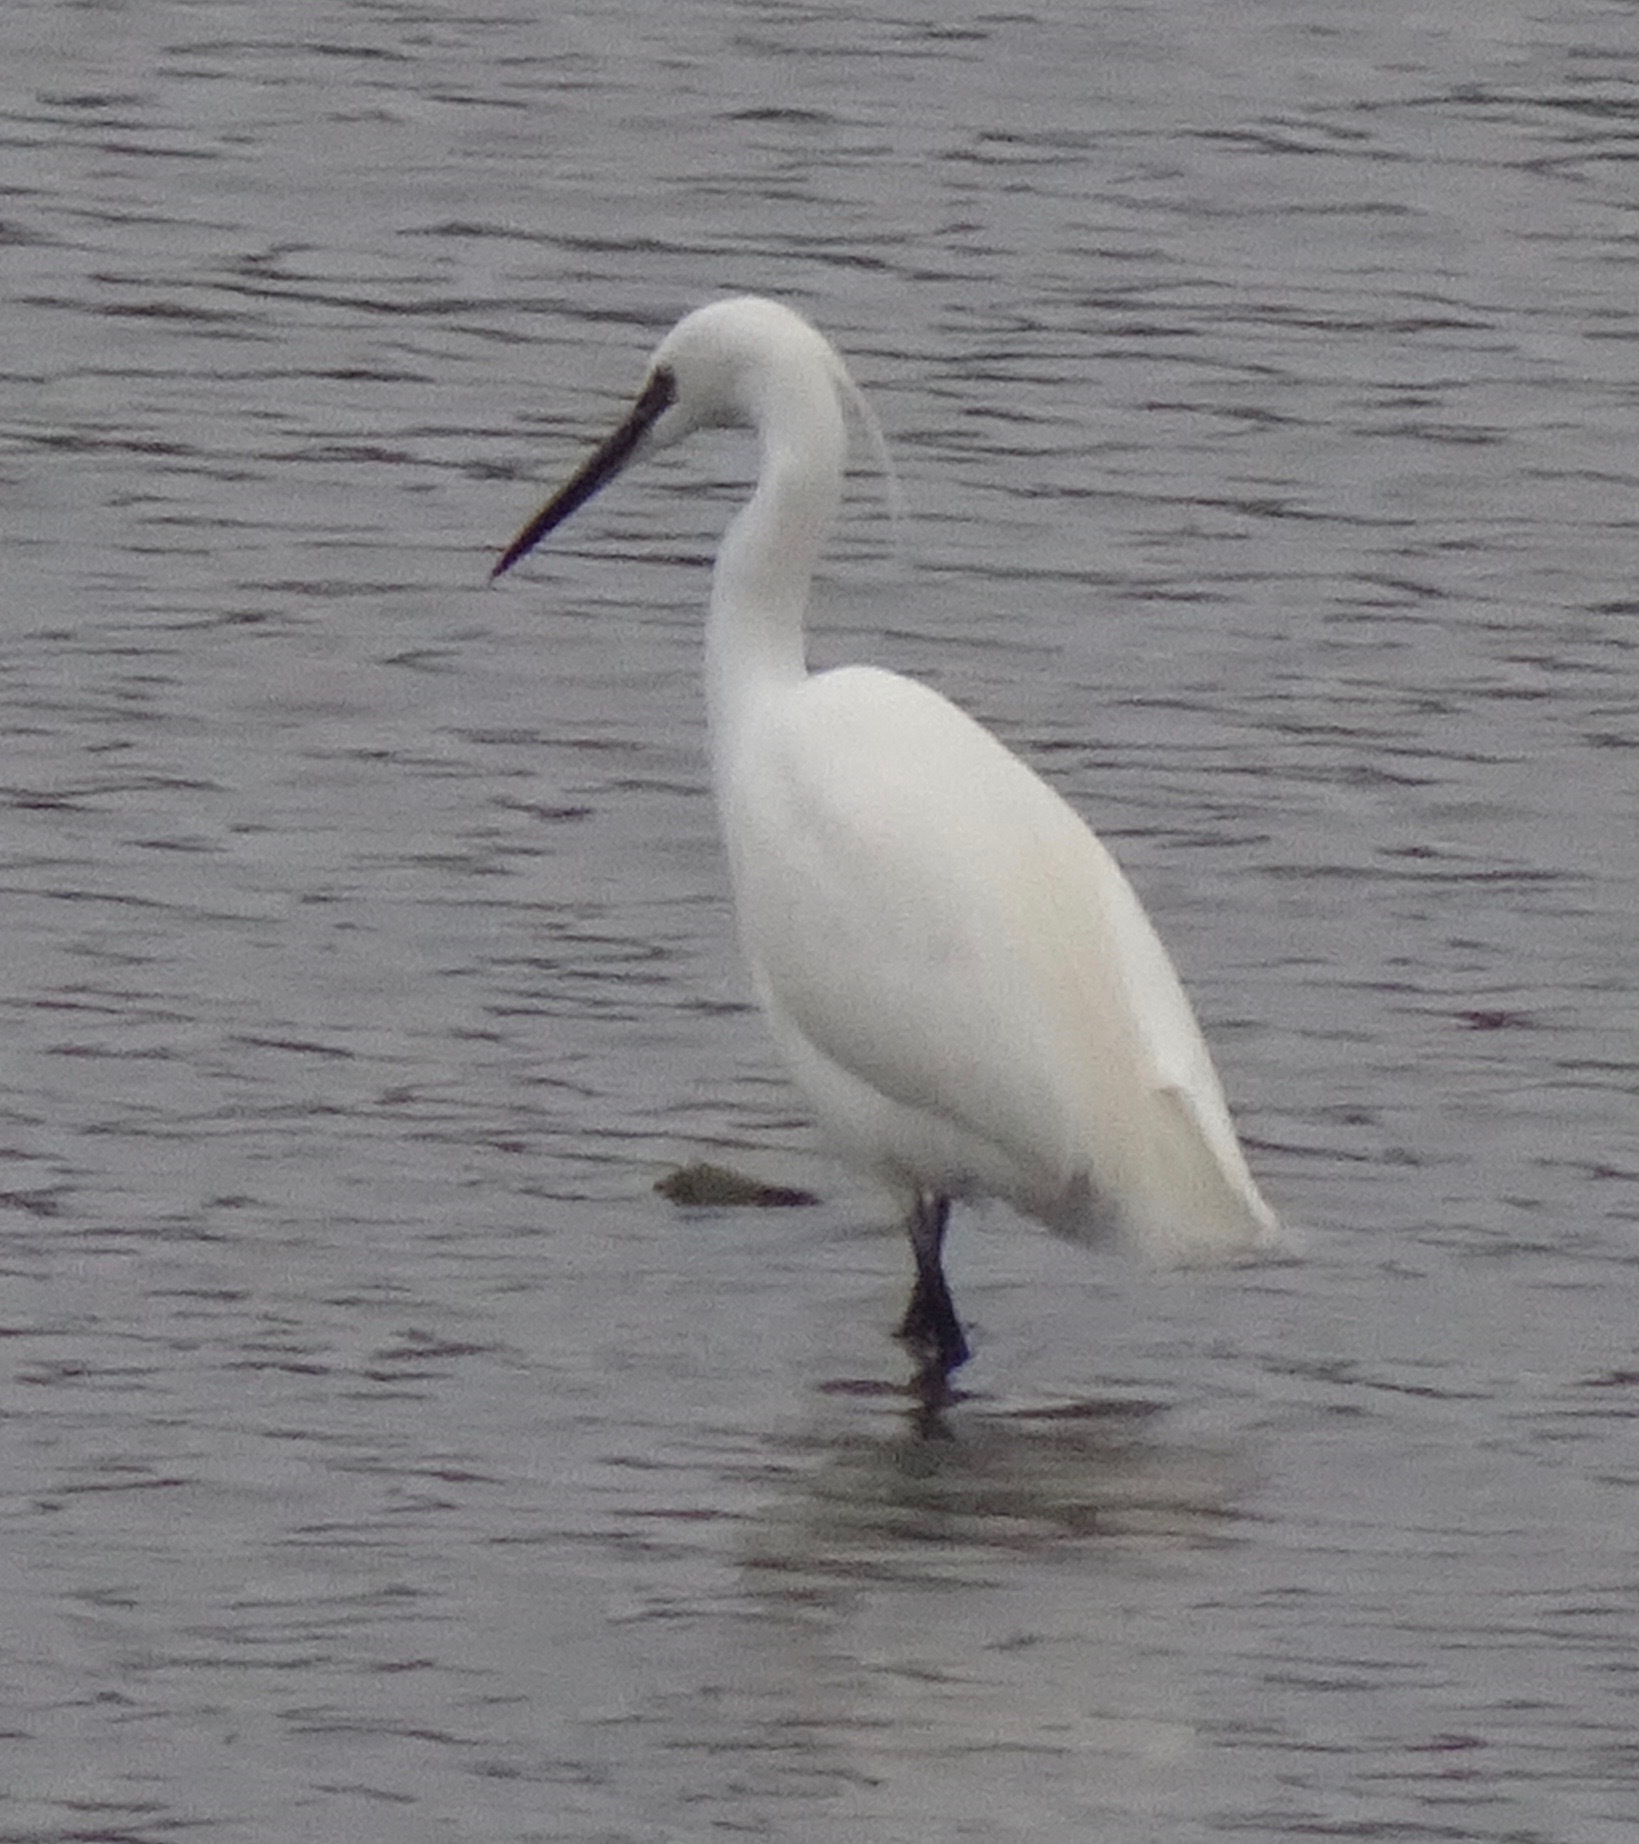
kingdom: Animalia
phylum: Chordata
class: Aves
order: Pelecaniformes
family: Ardeidae
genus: Egretta
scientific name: Egretta garzetta
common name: Little egret
